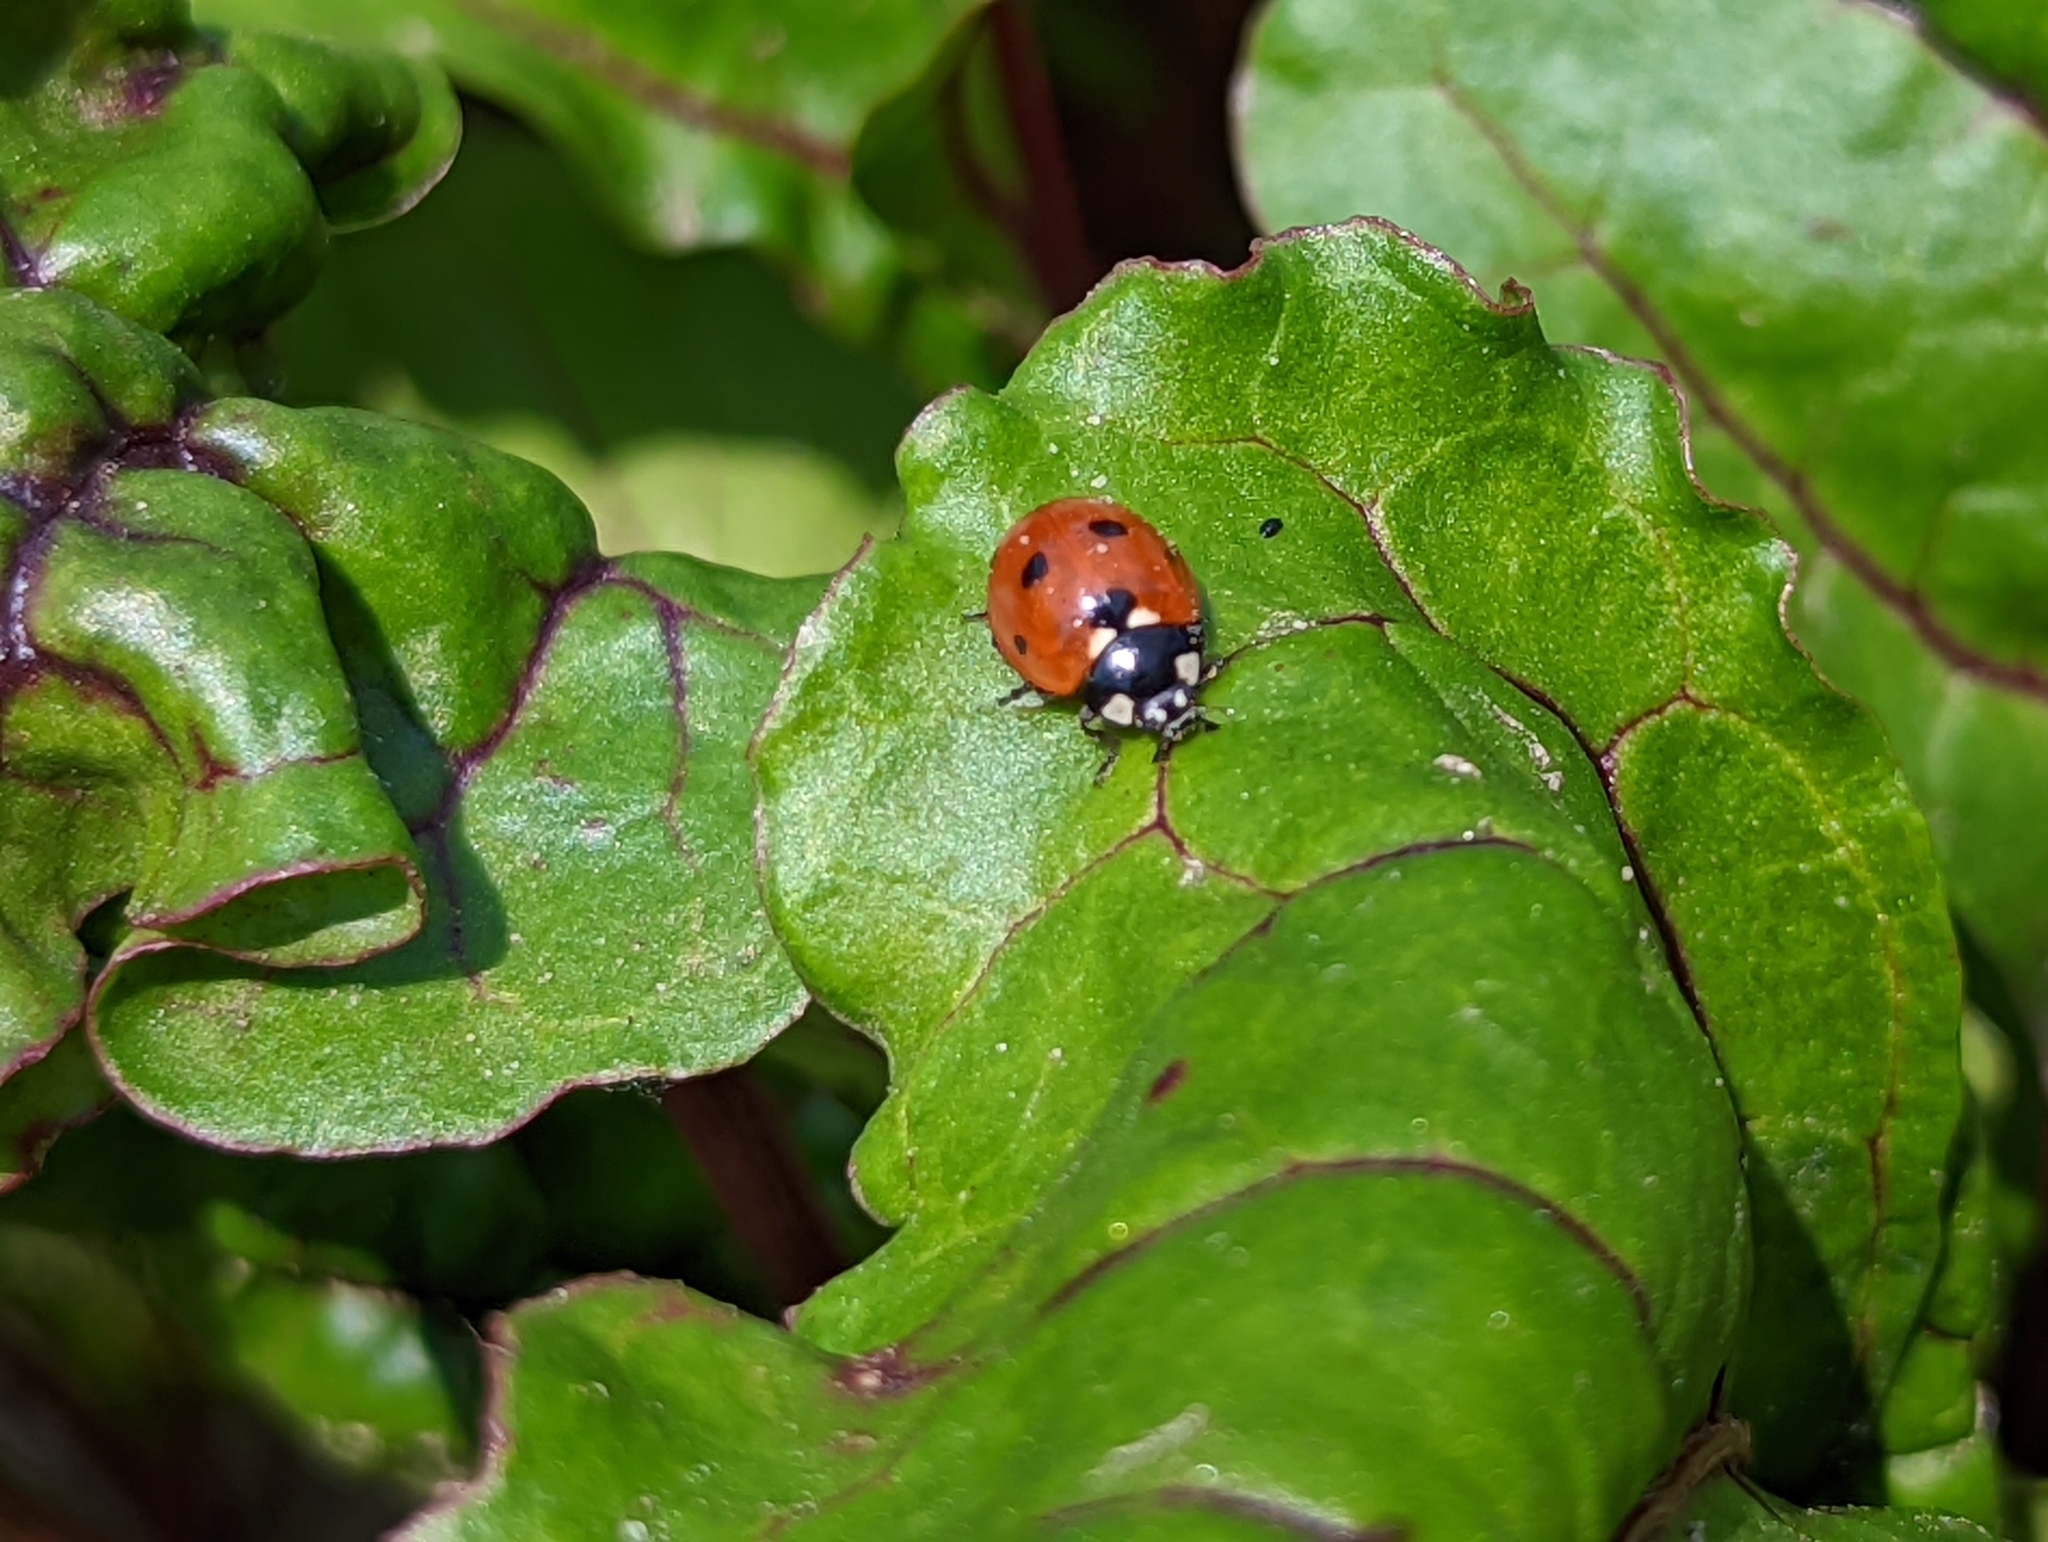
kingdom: Animalia
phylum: Arthropoda
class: Insecta
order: Coleoptera
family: Coccinellidae
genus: Coccinella
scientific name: Coccinella septempunctata
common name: Sevenspotted lady beetle
